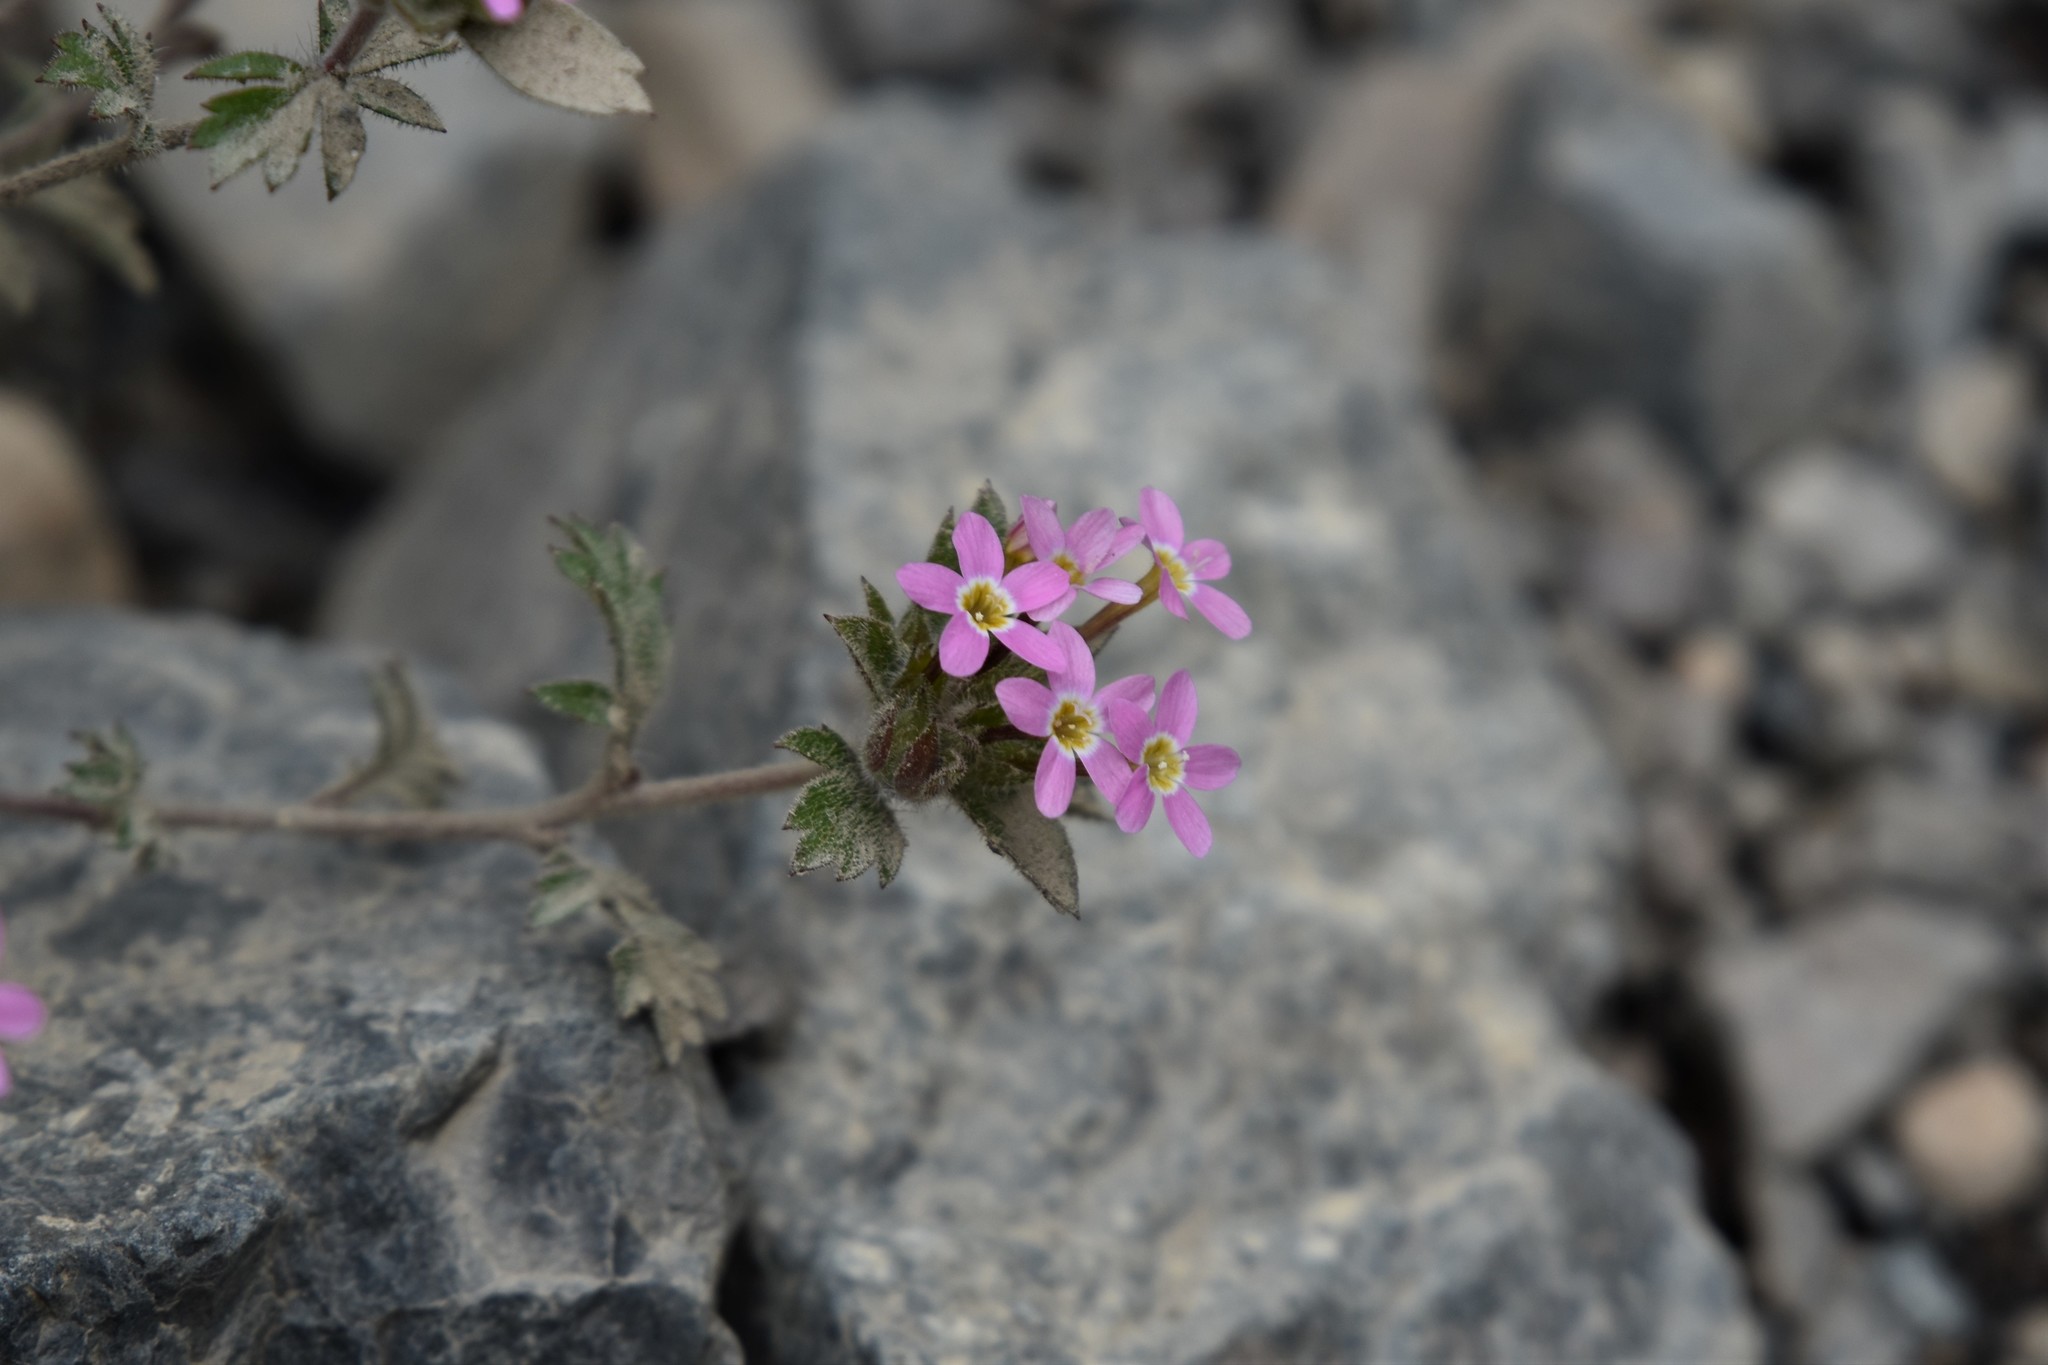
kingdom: Plantae
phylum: Tracheophyta
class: Magnoliopsida
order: Ericales
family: Polemoniaceae
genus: Collomia
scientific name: Collomia heterophylla
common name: Variable-leaved collomia
